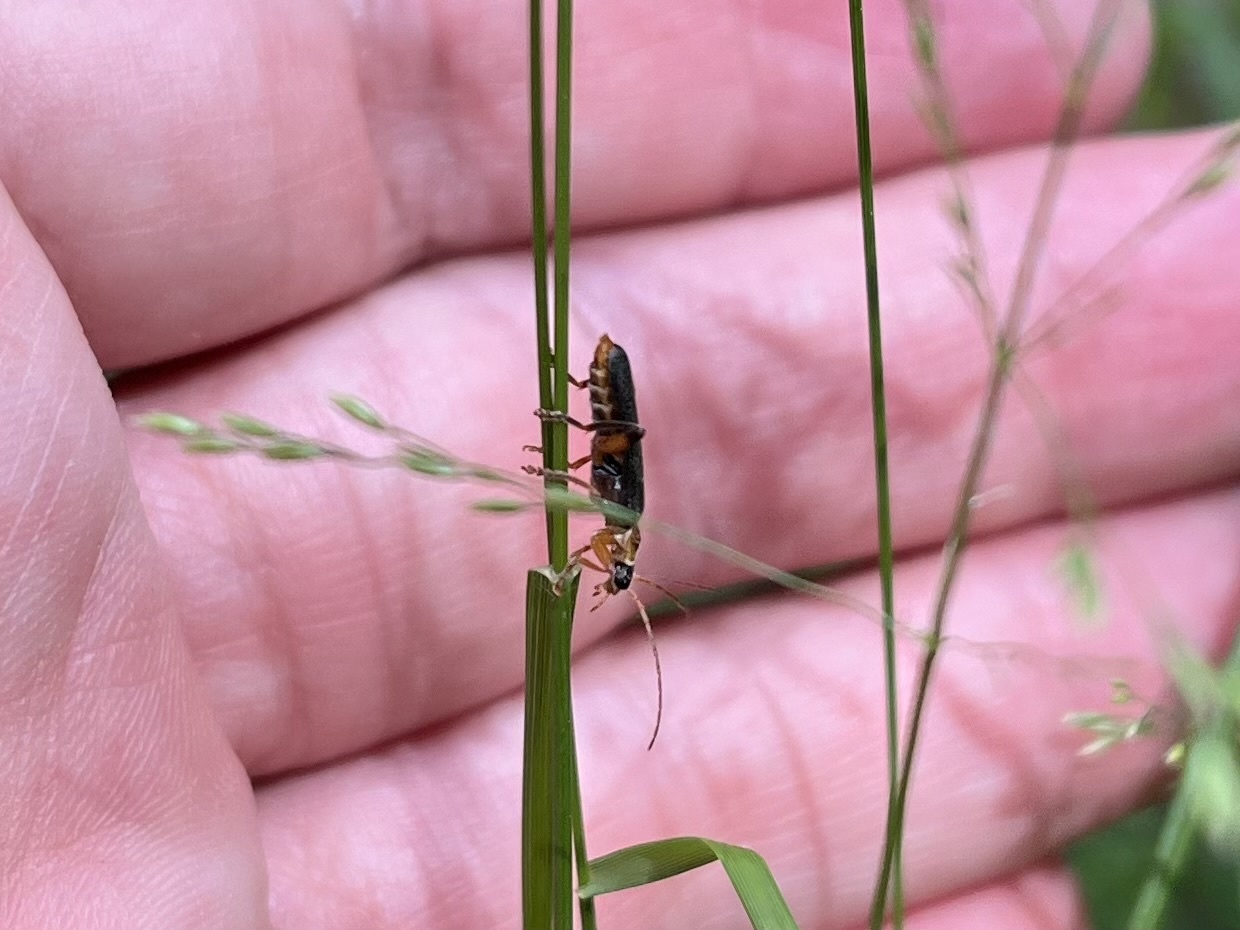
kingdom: Animalia
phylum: Arthropoda
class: Insecta
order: Coleoptera
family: Cantharidae
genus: Cantharis
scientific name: Cantharis nigricans
